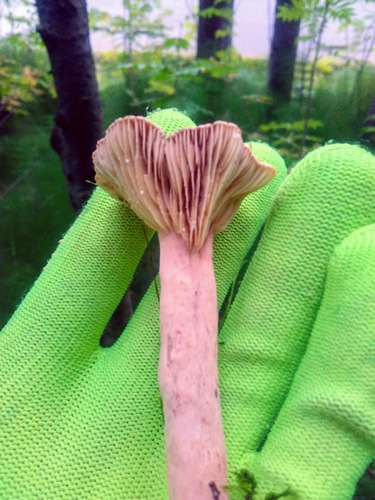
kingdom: Fungi
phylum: Basidiomycota
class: Agaricomycetes
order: Russulales
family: Russulaceae
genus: Lactarius
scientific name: Lactarius rufus
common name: Rufous milk-cap
